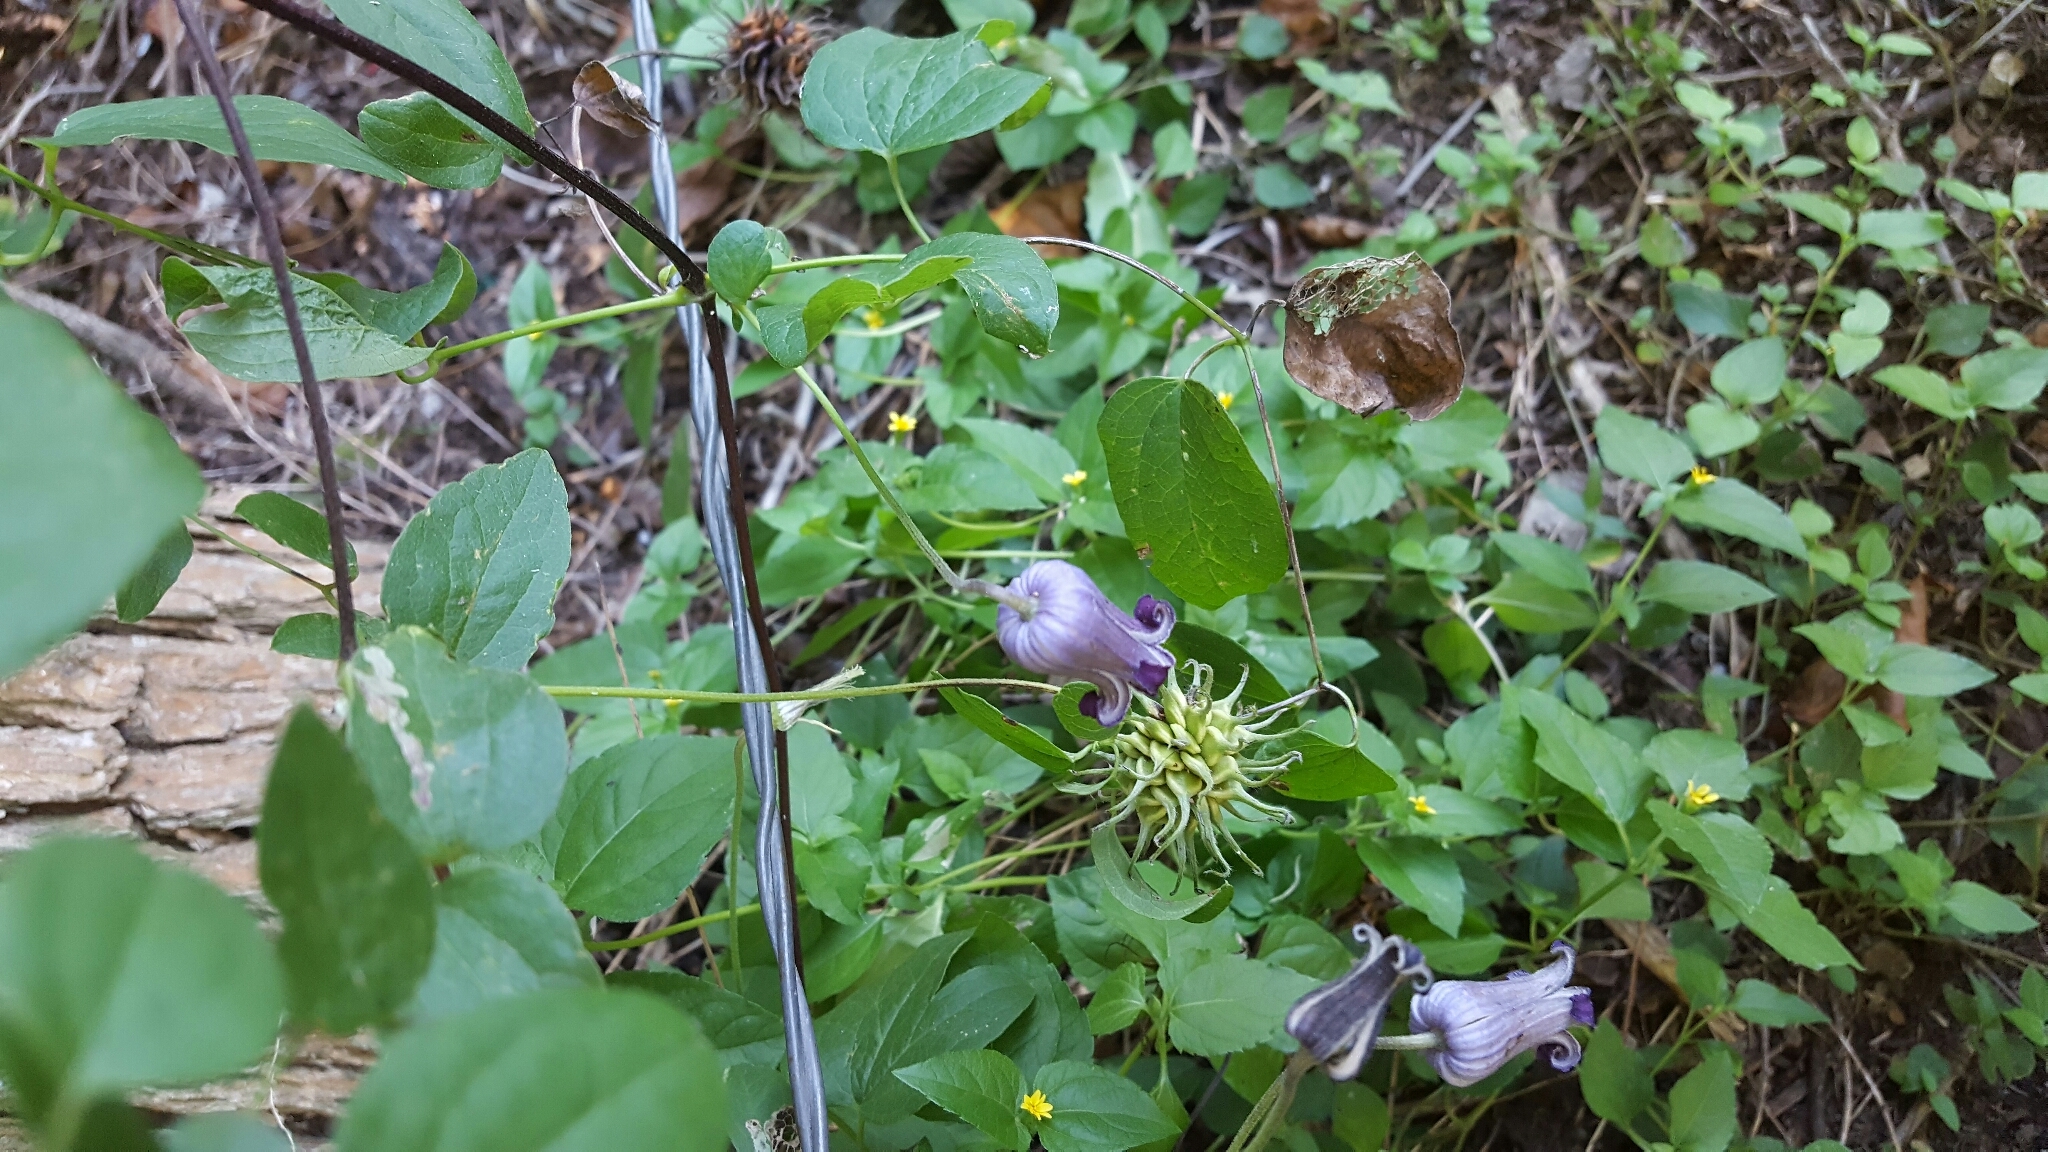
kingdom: Plantae
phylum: Tracheophyta
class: Magnoliopsida
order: Ranunculales
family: Ranunculaceae
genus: Clematis
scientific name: Clematis pitcheri
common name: Bellflower clematis
